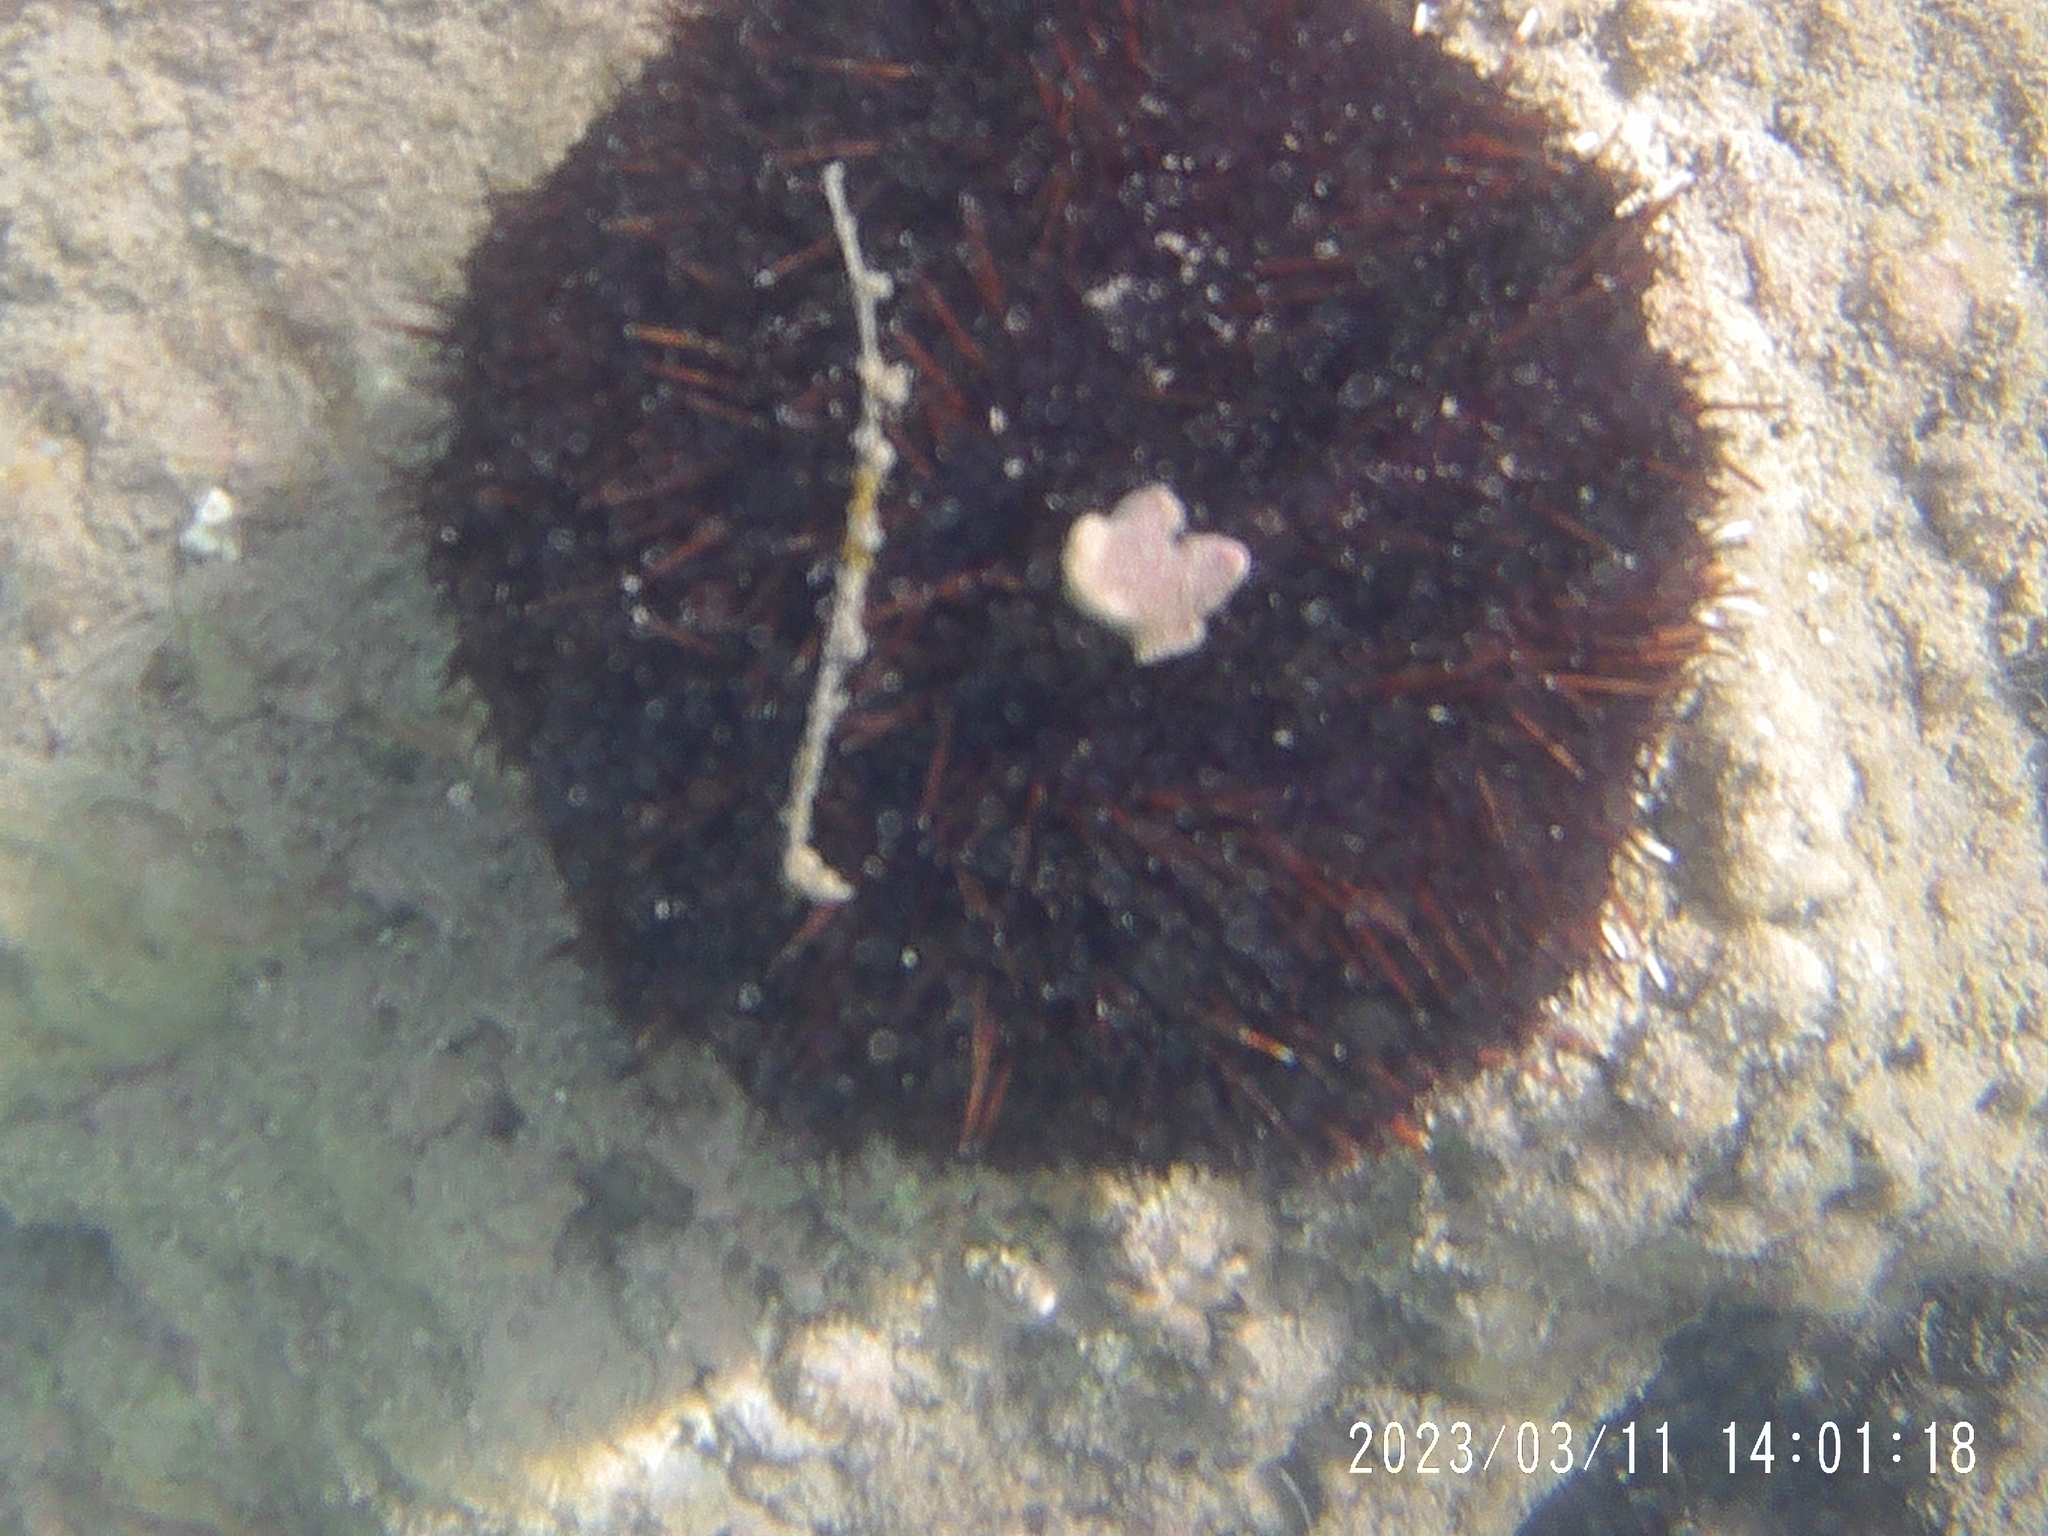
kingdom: Animalia
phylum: Echinodermata
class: Echinoidea
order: Camarodonta
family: Toxopneustidae
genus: Tripneustes
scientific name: Tripneustes gratilla
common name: Bischofsmützenseeigel
